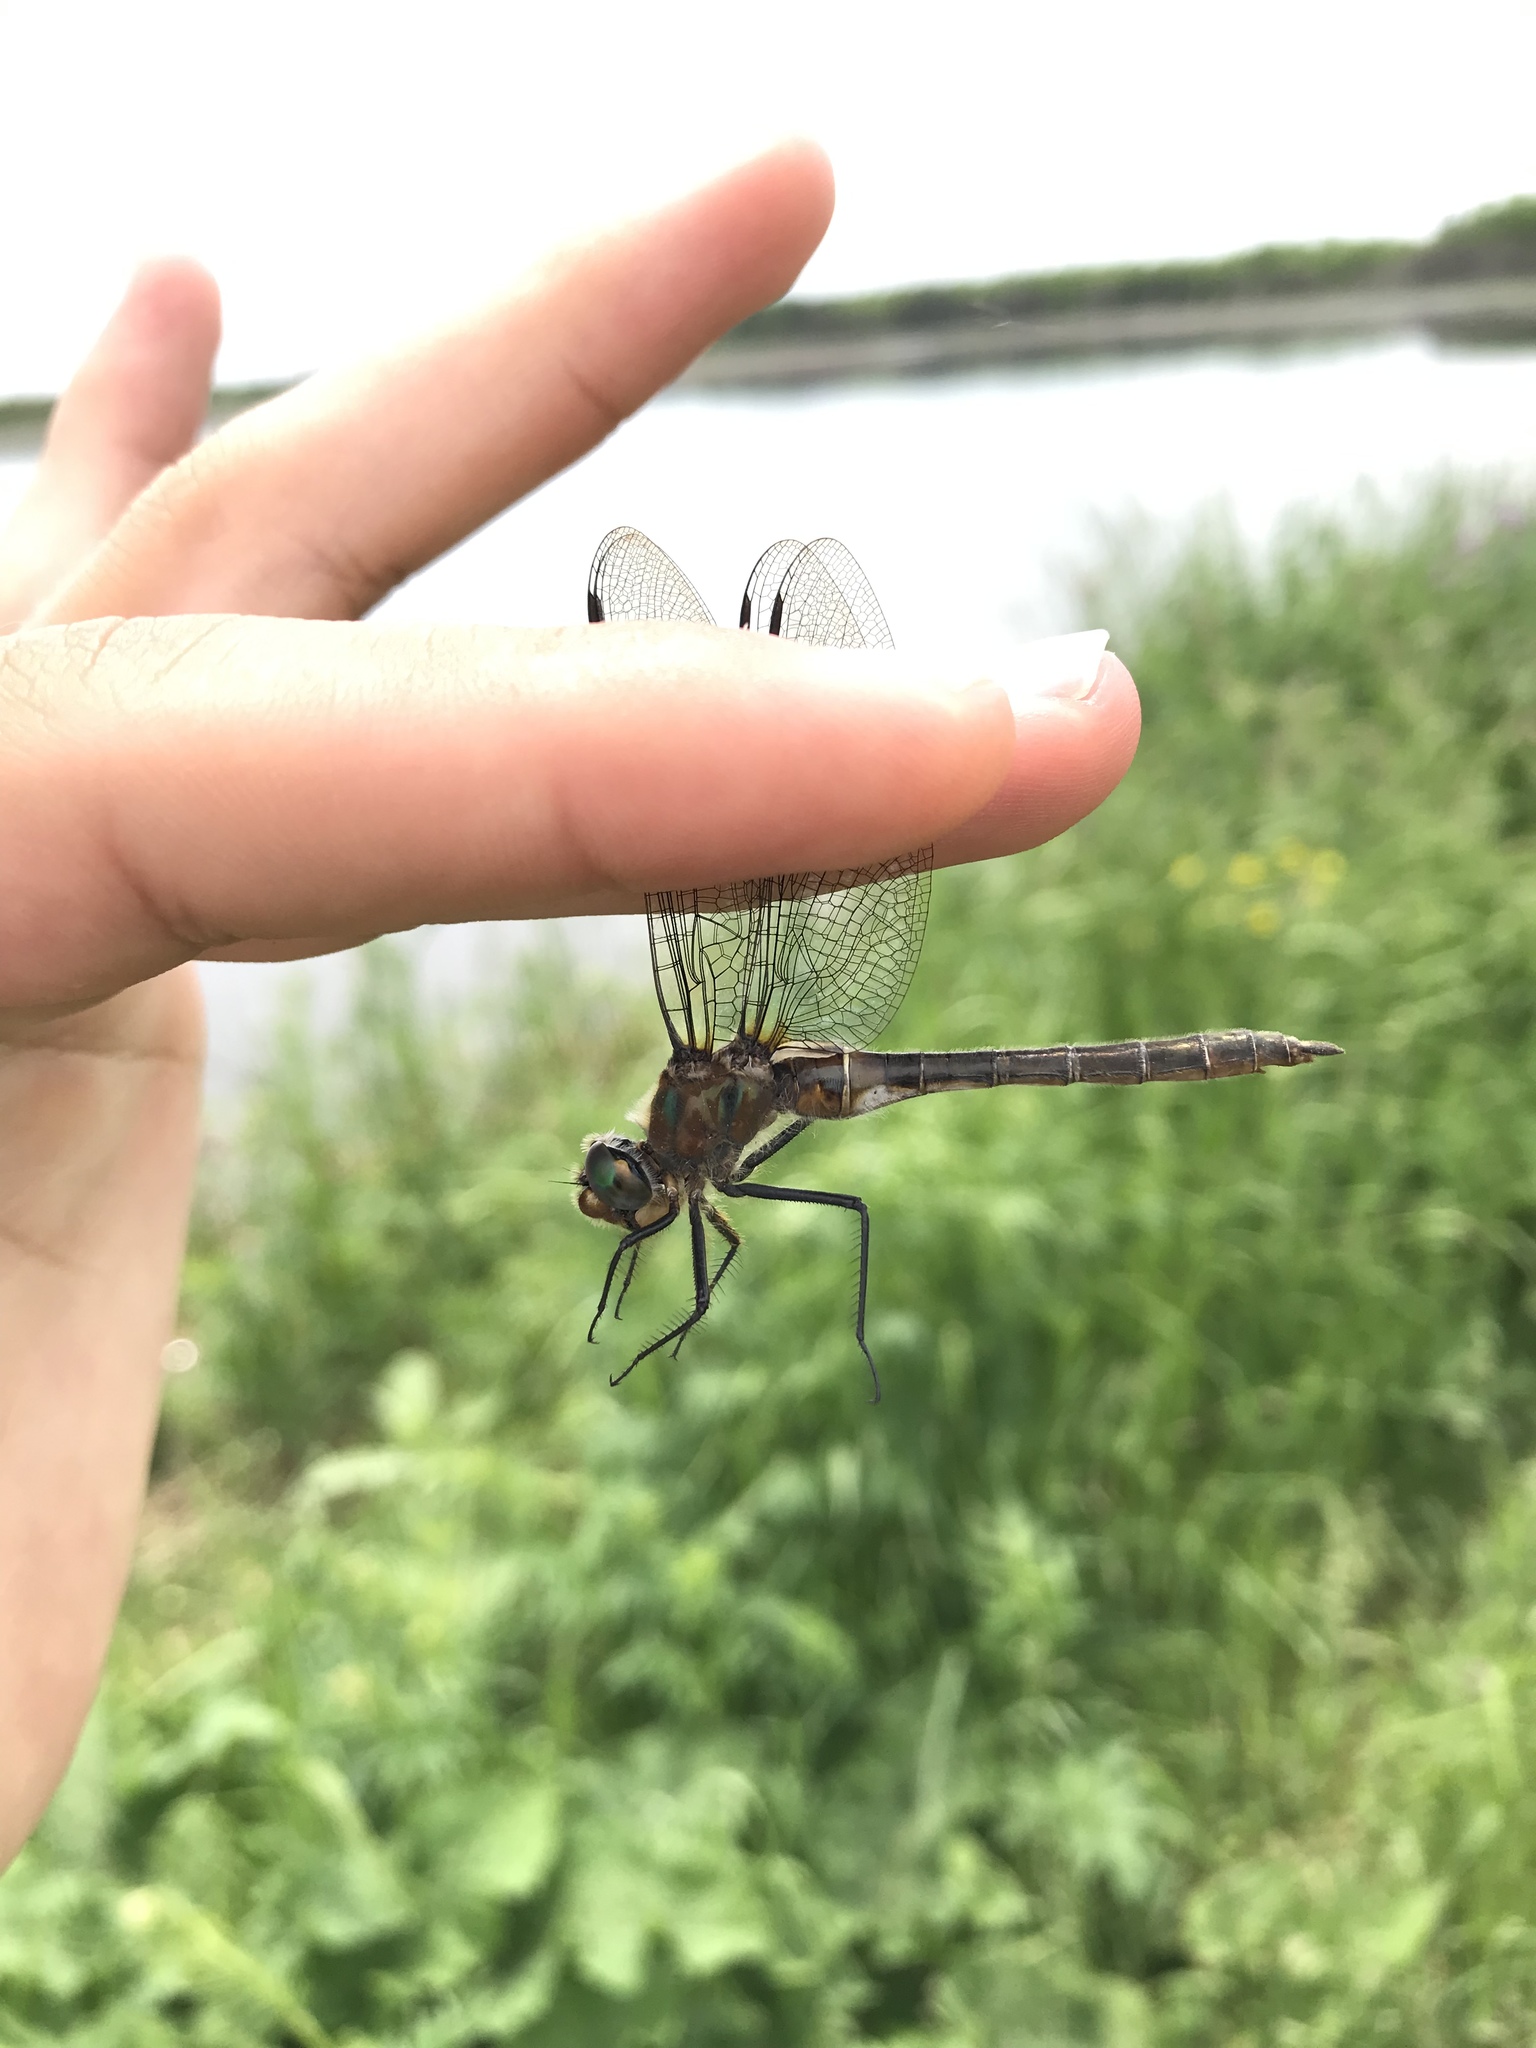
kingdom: Animalia
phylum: Arthropoda
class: Insecta
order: Odonata
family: Corduliidae
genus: Cordulia
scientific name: Cordulia shurtleffii
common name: American emerald
